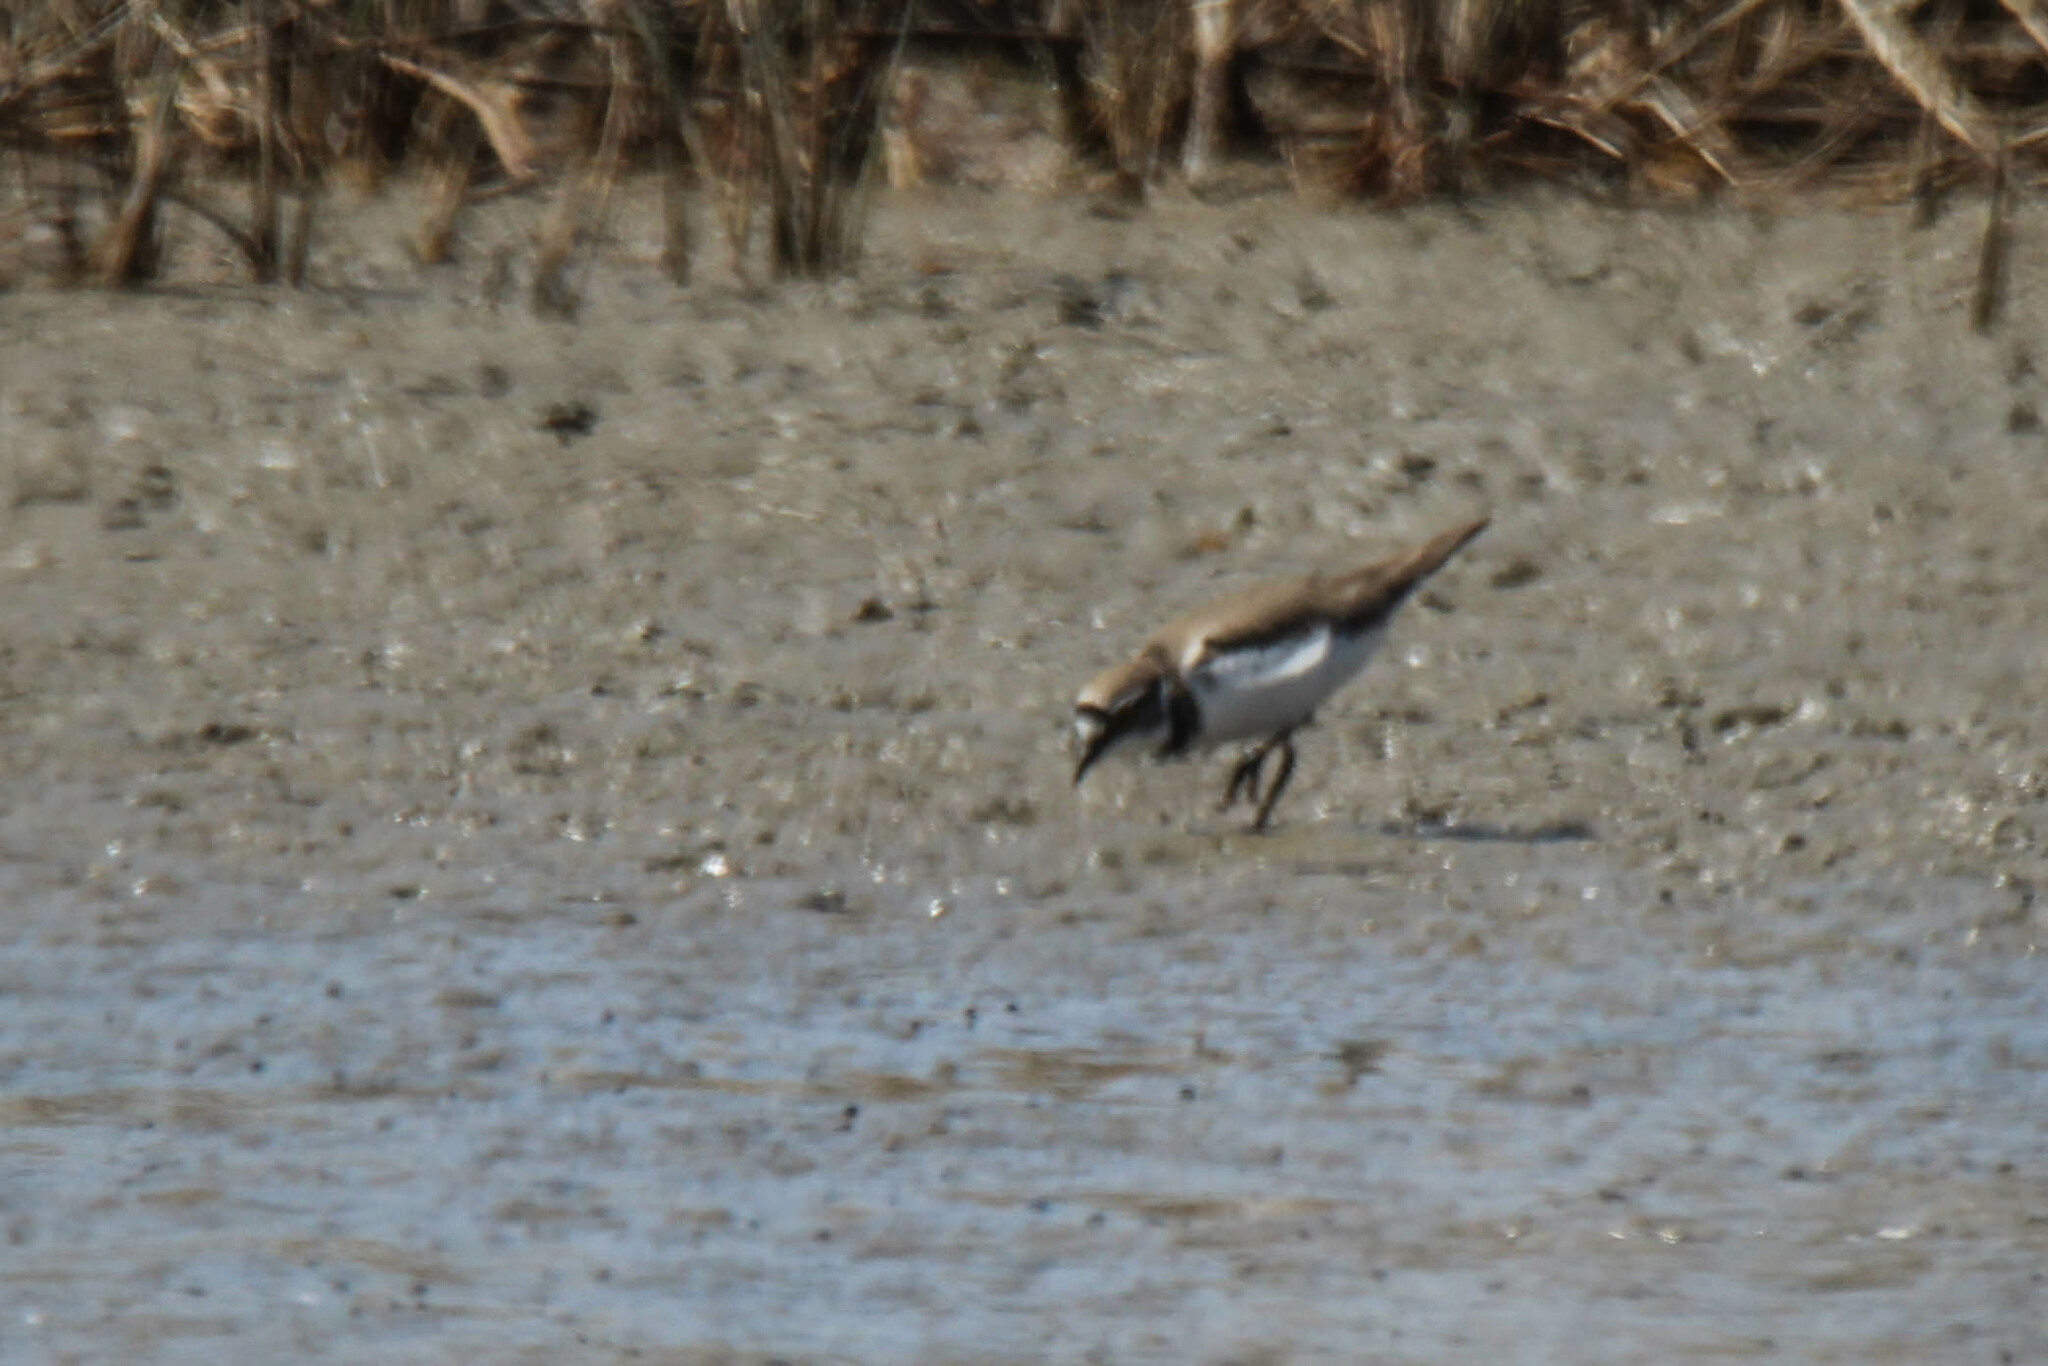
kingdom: Animalia
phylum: Chordata
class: Aves
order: Charadriiformes
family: Charadriidae
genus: Charadrius
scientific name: Charadrius dubius
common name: Little ringed plover
